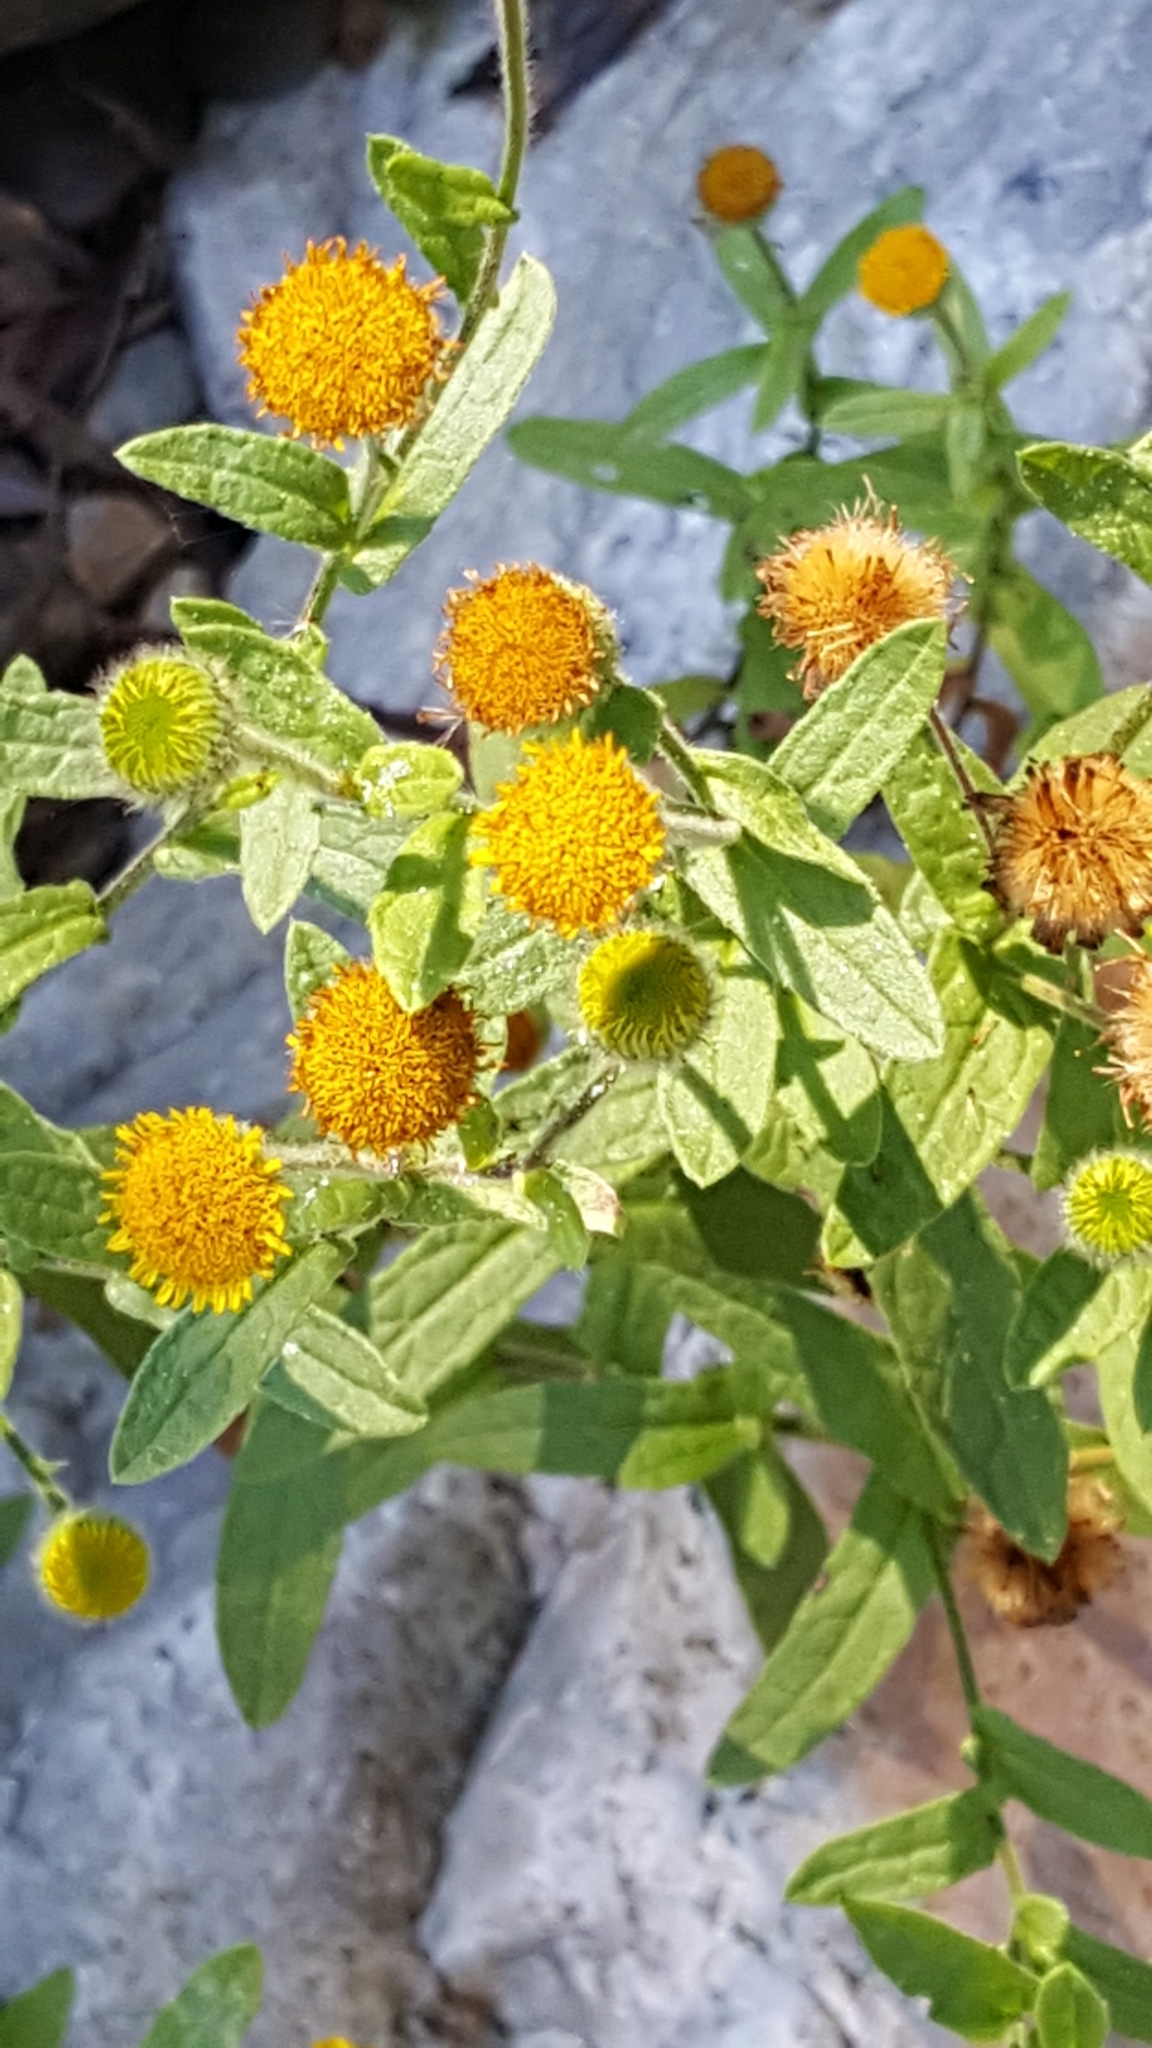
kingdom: Plantae
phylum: Tracheophyta
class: Magnoliopsida
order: Asterales
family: Asteraceae
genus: Pulicaria
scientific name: Pulicaria scabra
